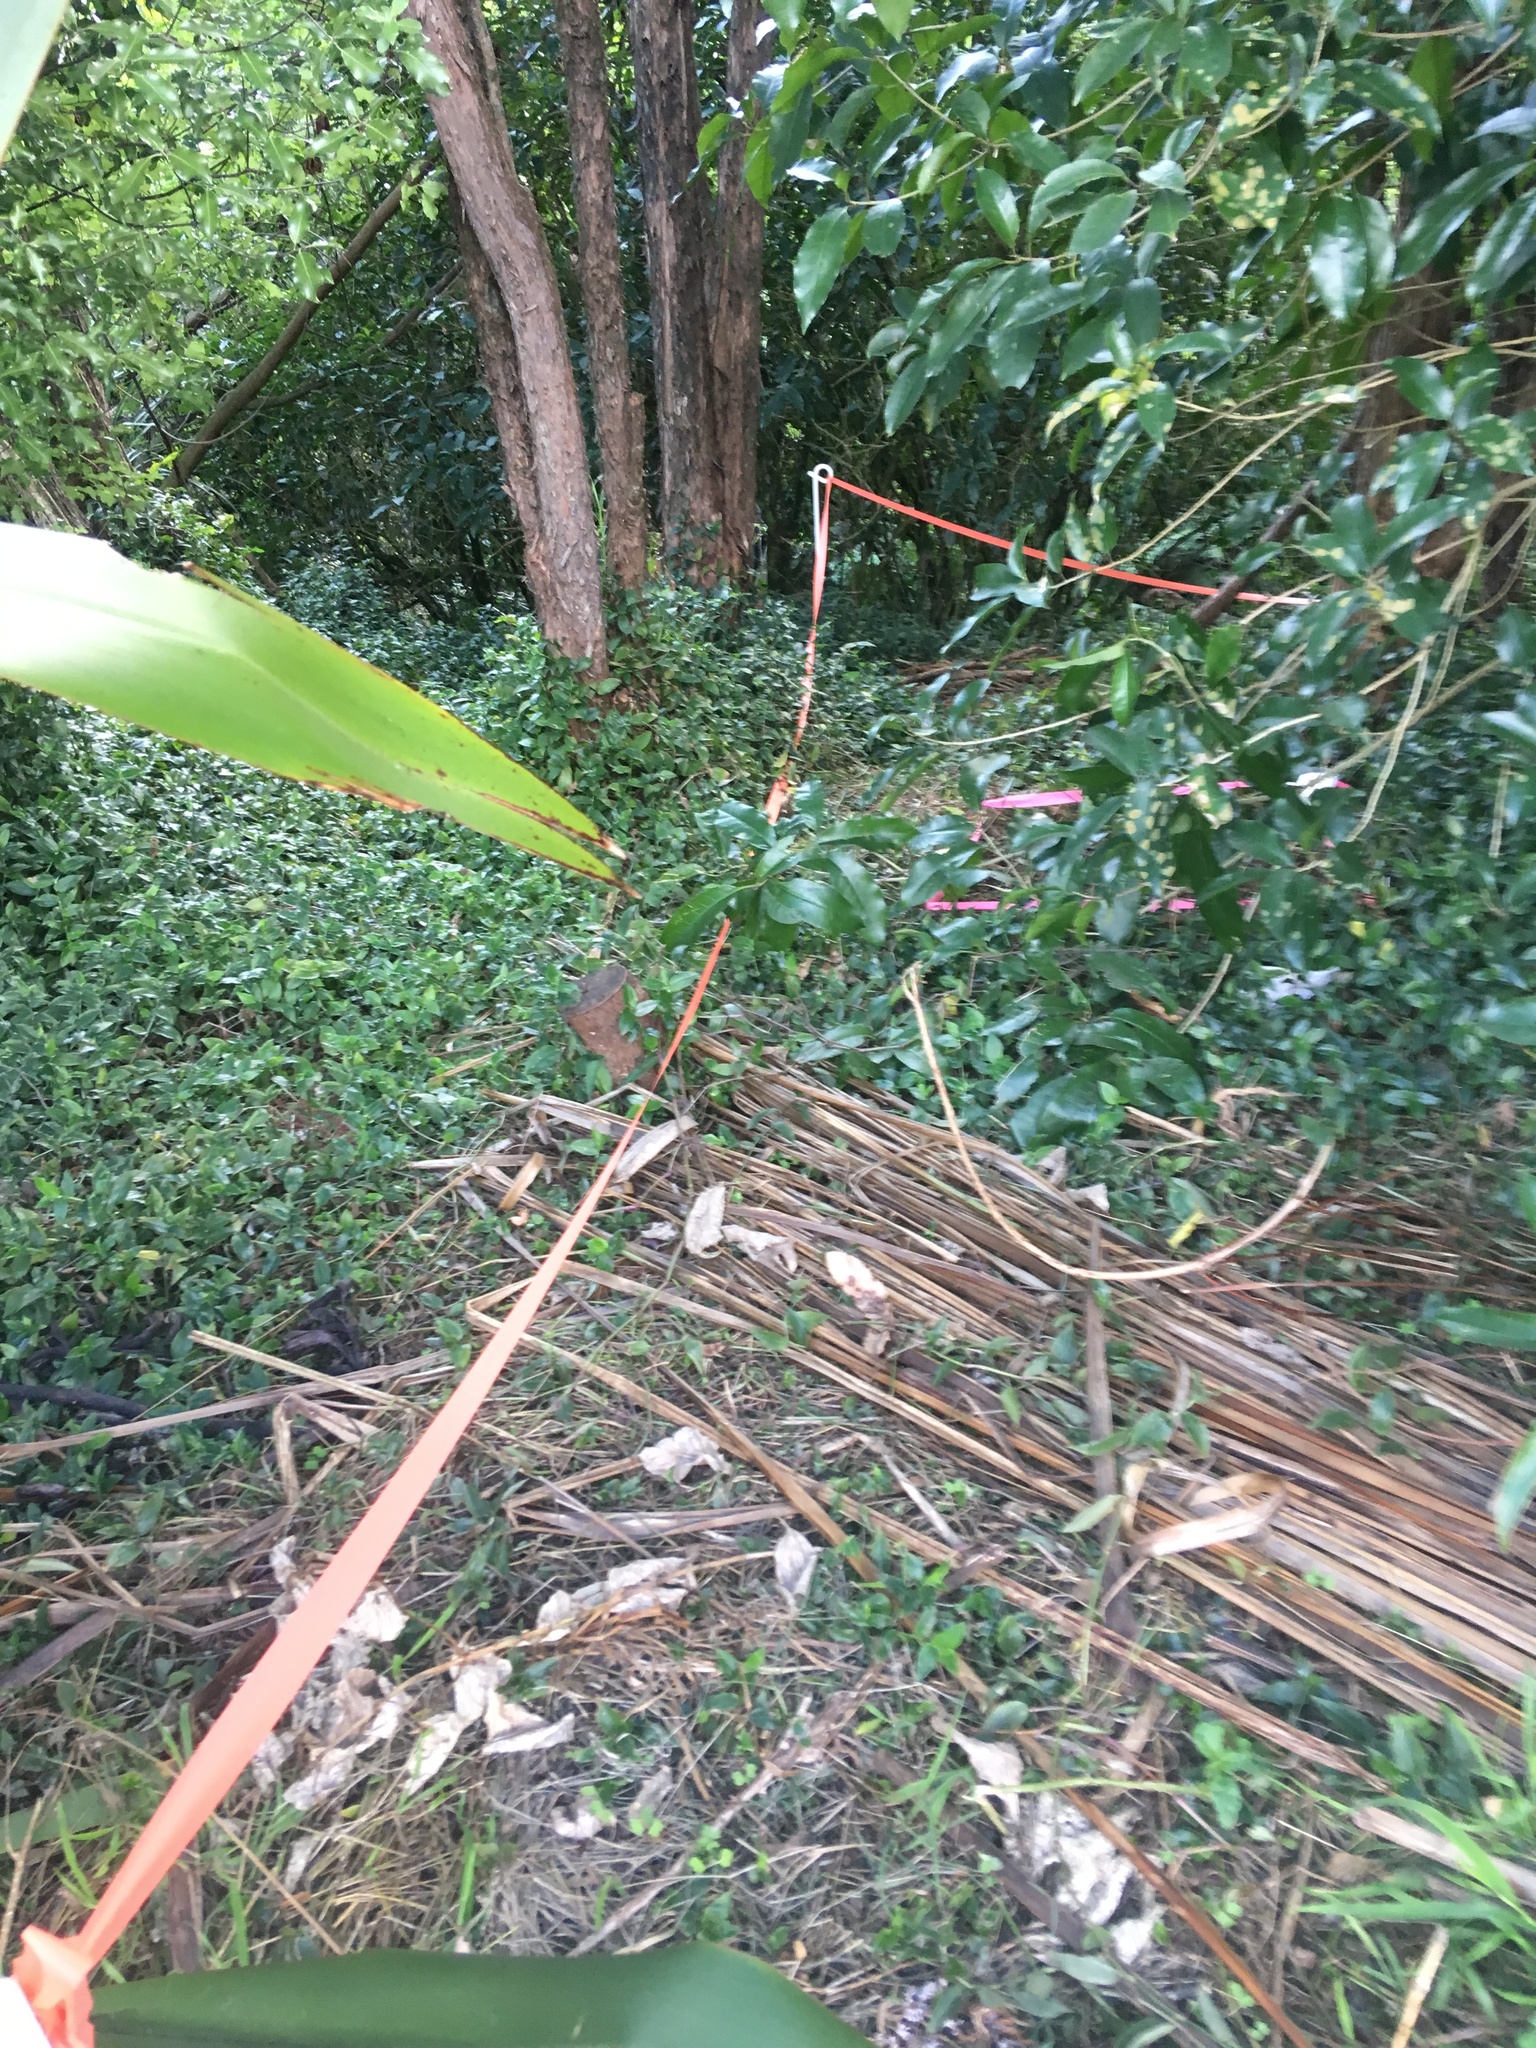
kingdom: Plantae
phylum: Tracheophyta
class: Liliopsida
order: Commelinales
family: Commelinaceae
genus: Tradescantia
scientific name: Tradescantia fluminensis
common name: Wandering-jew
